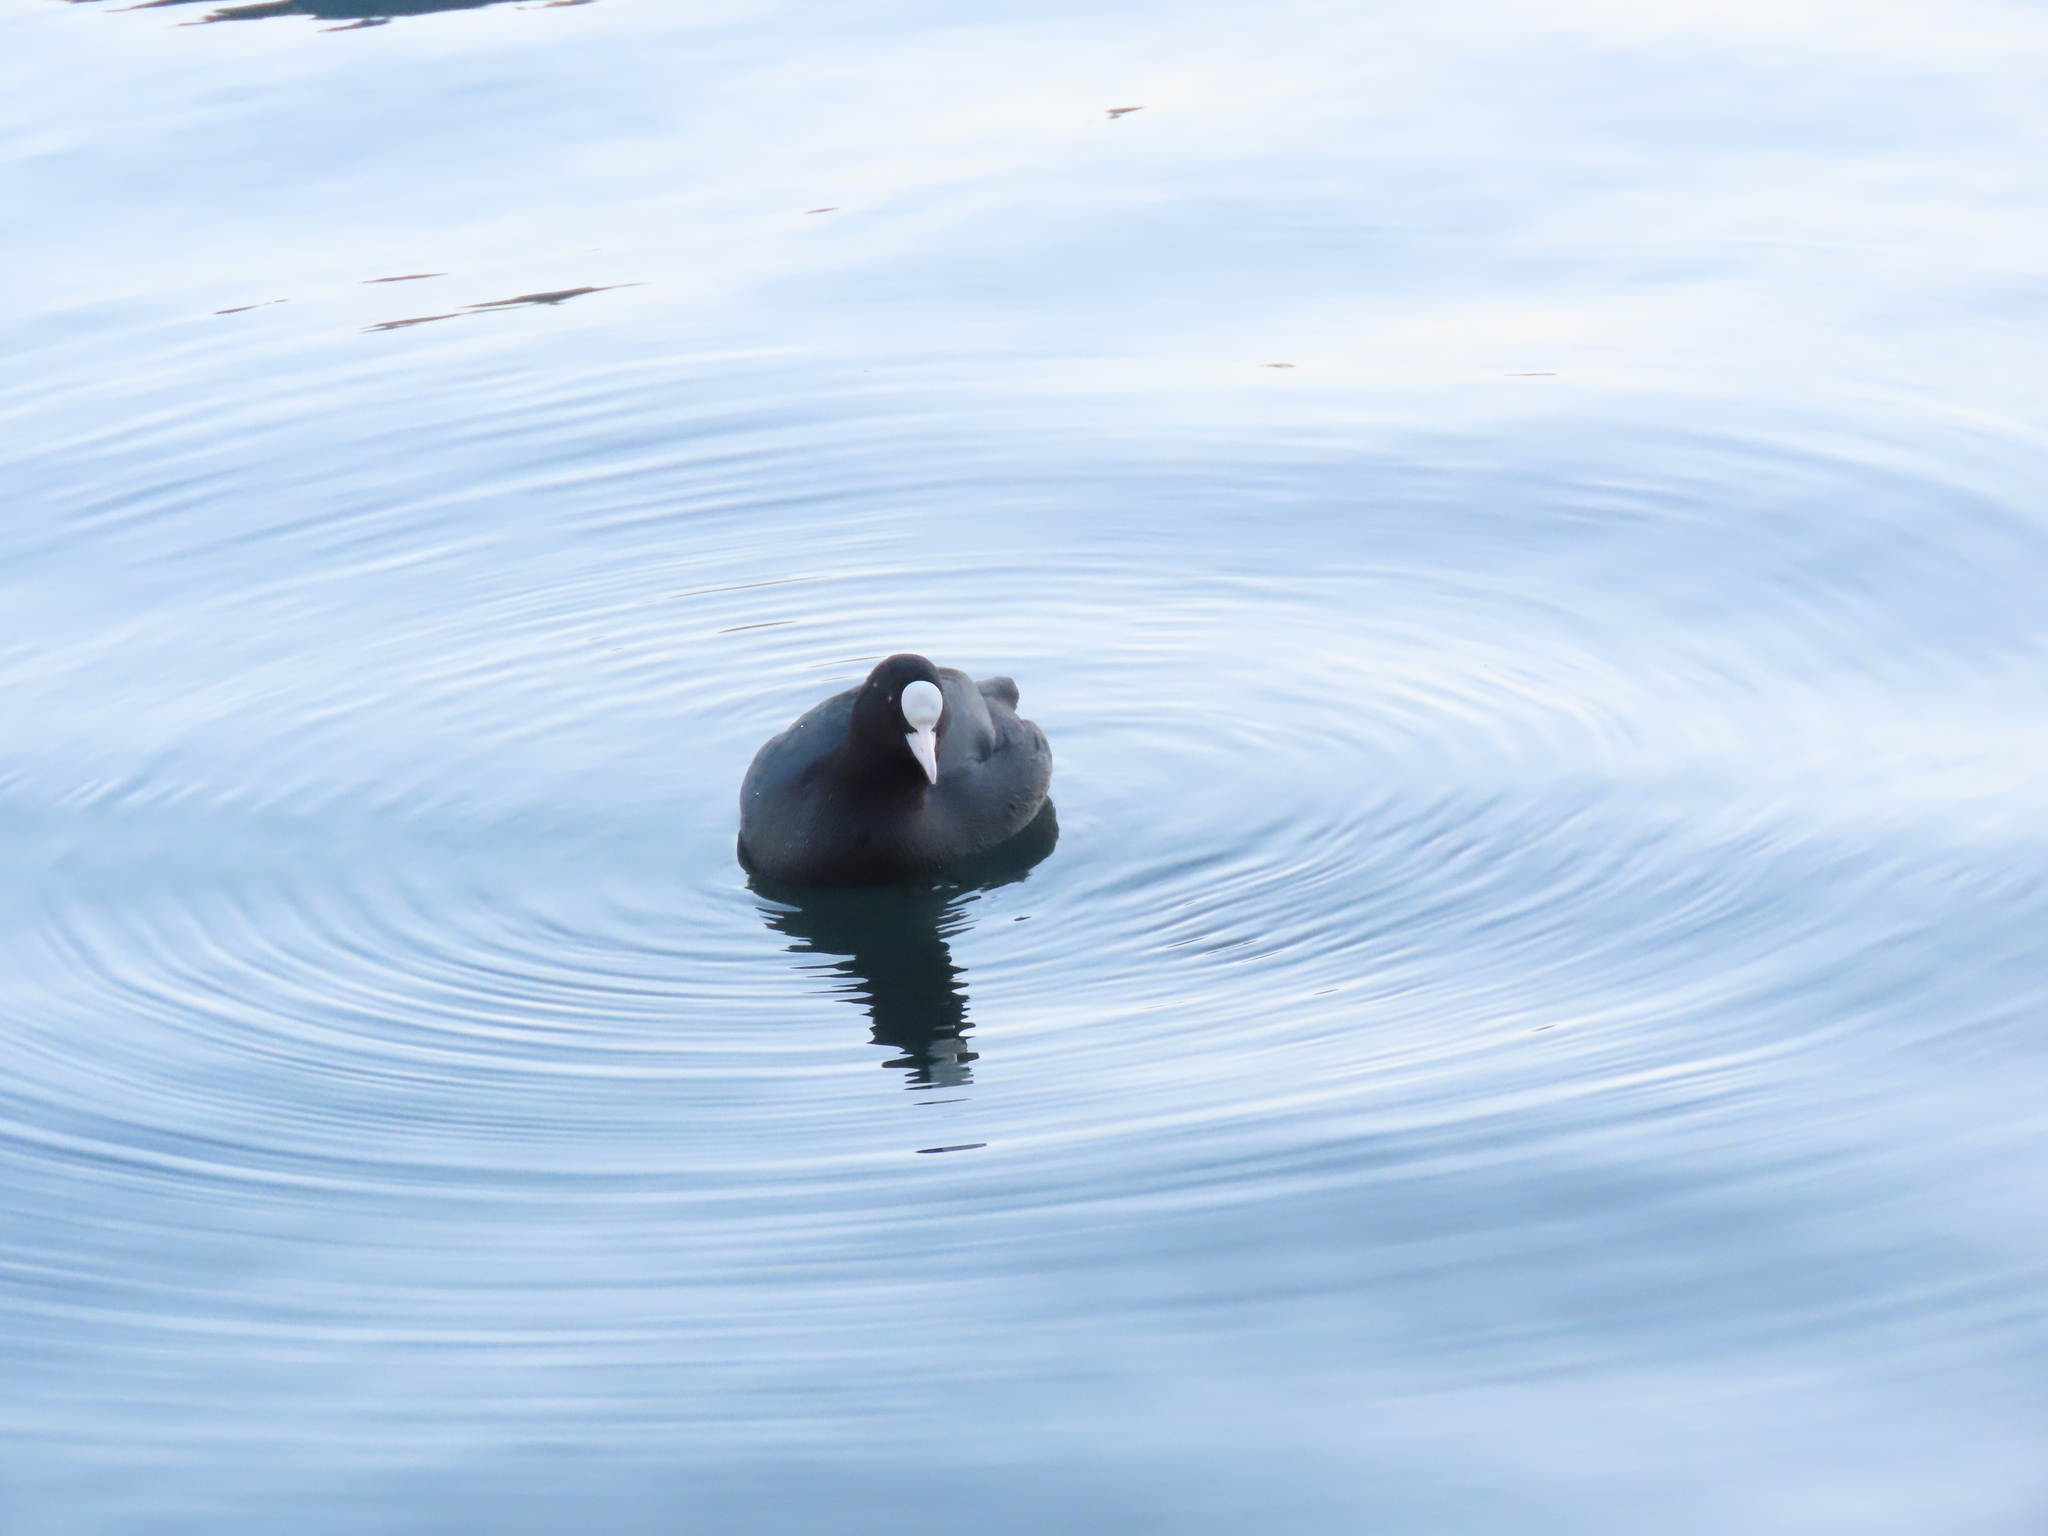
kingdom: Animalia
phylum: Chordata
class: Aves
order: Gruiformes
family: Rallidae
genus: Fulica
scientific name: Fulica atra
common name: Eurasian coot
